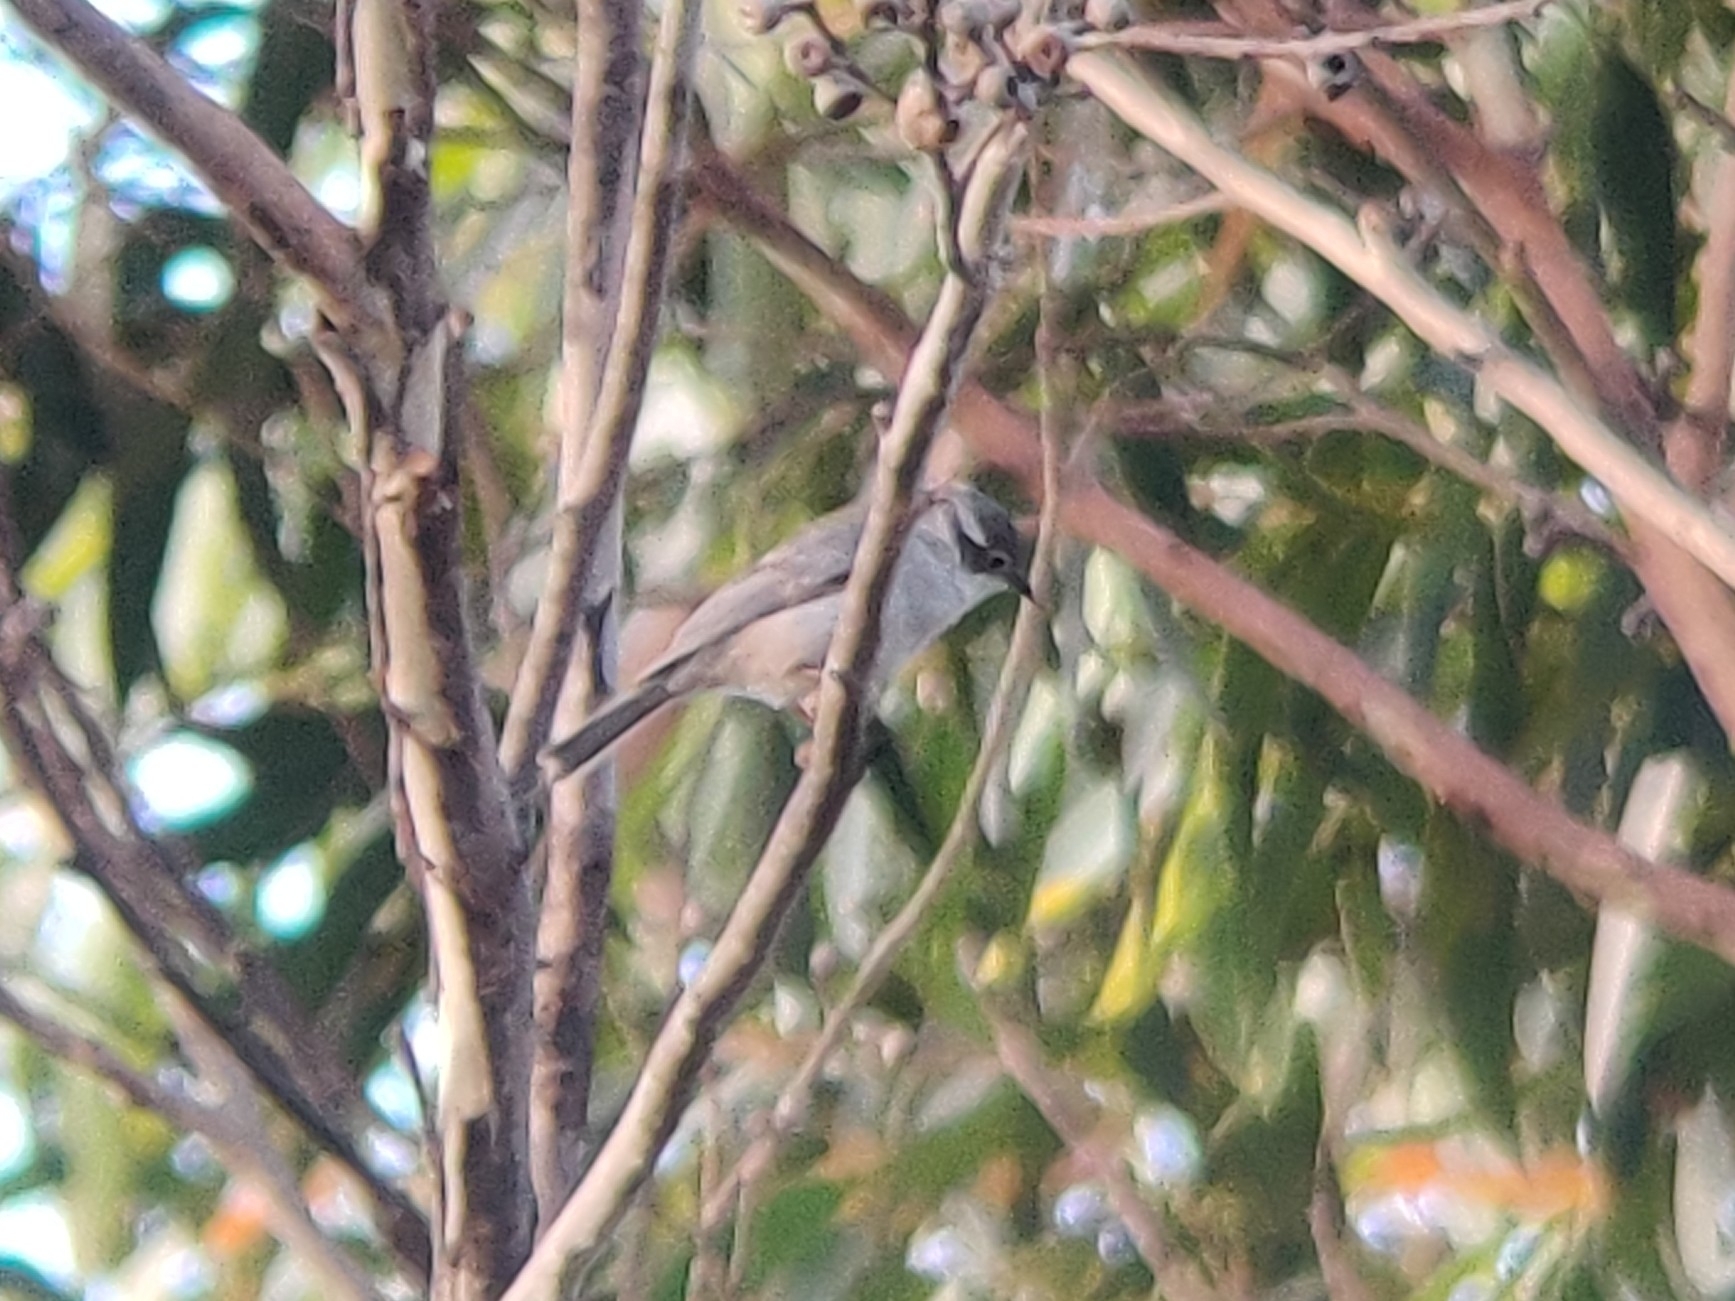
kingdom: Animalia
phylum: Chordata
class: Aves
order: Passeriformes
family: Meliphagidae
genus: Melithreptus
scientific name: Melithreptus brevirostris
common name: Brown-headed honeyeater
